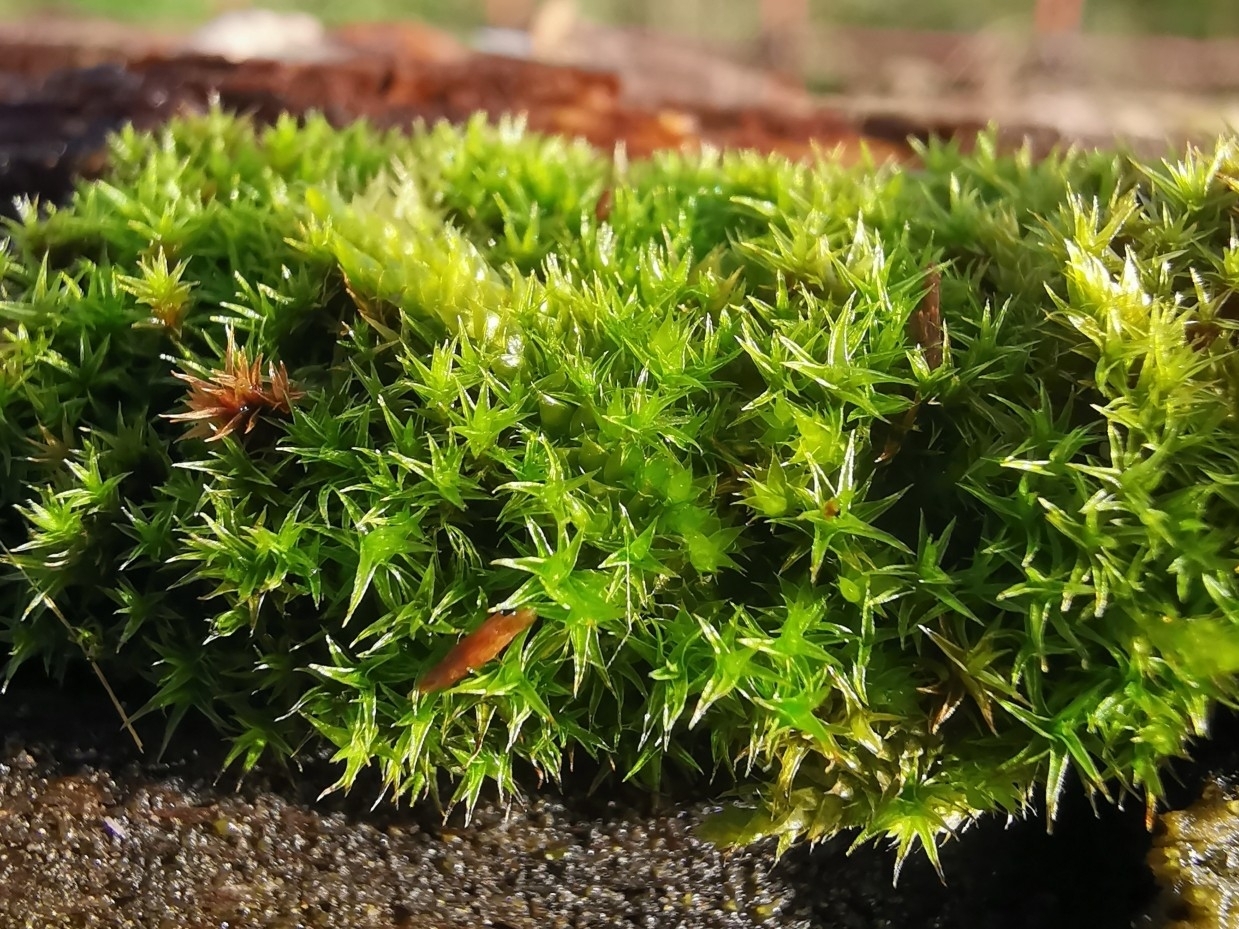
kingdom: Plantae
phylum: Bryophyta
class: Bryopsida
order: Dicranales
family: Ditrichaceae
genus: Ceratodon
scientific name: Ceratodon purpureus
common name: Redshank
